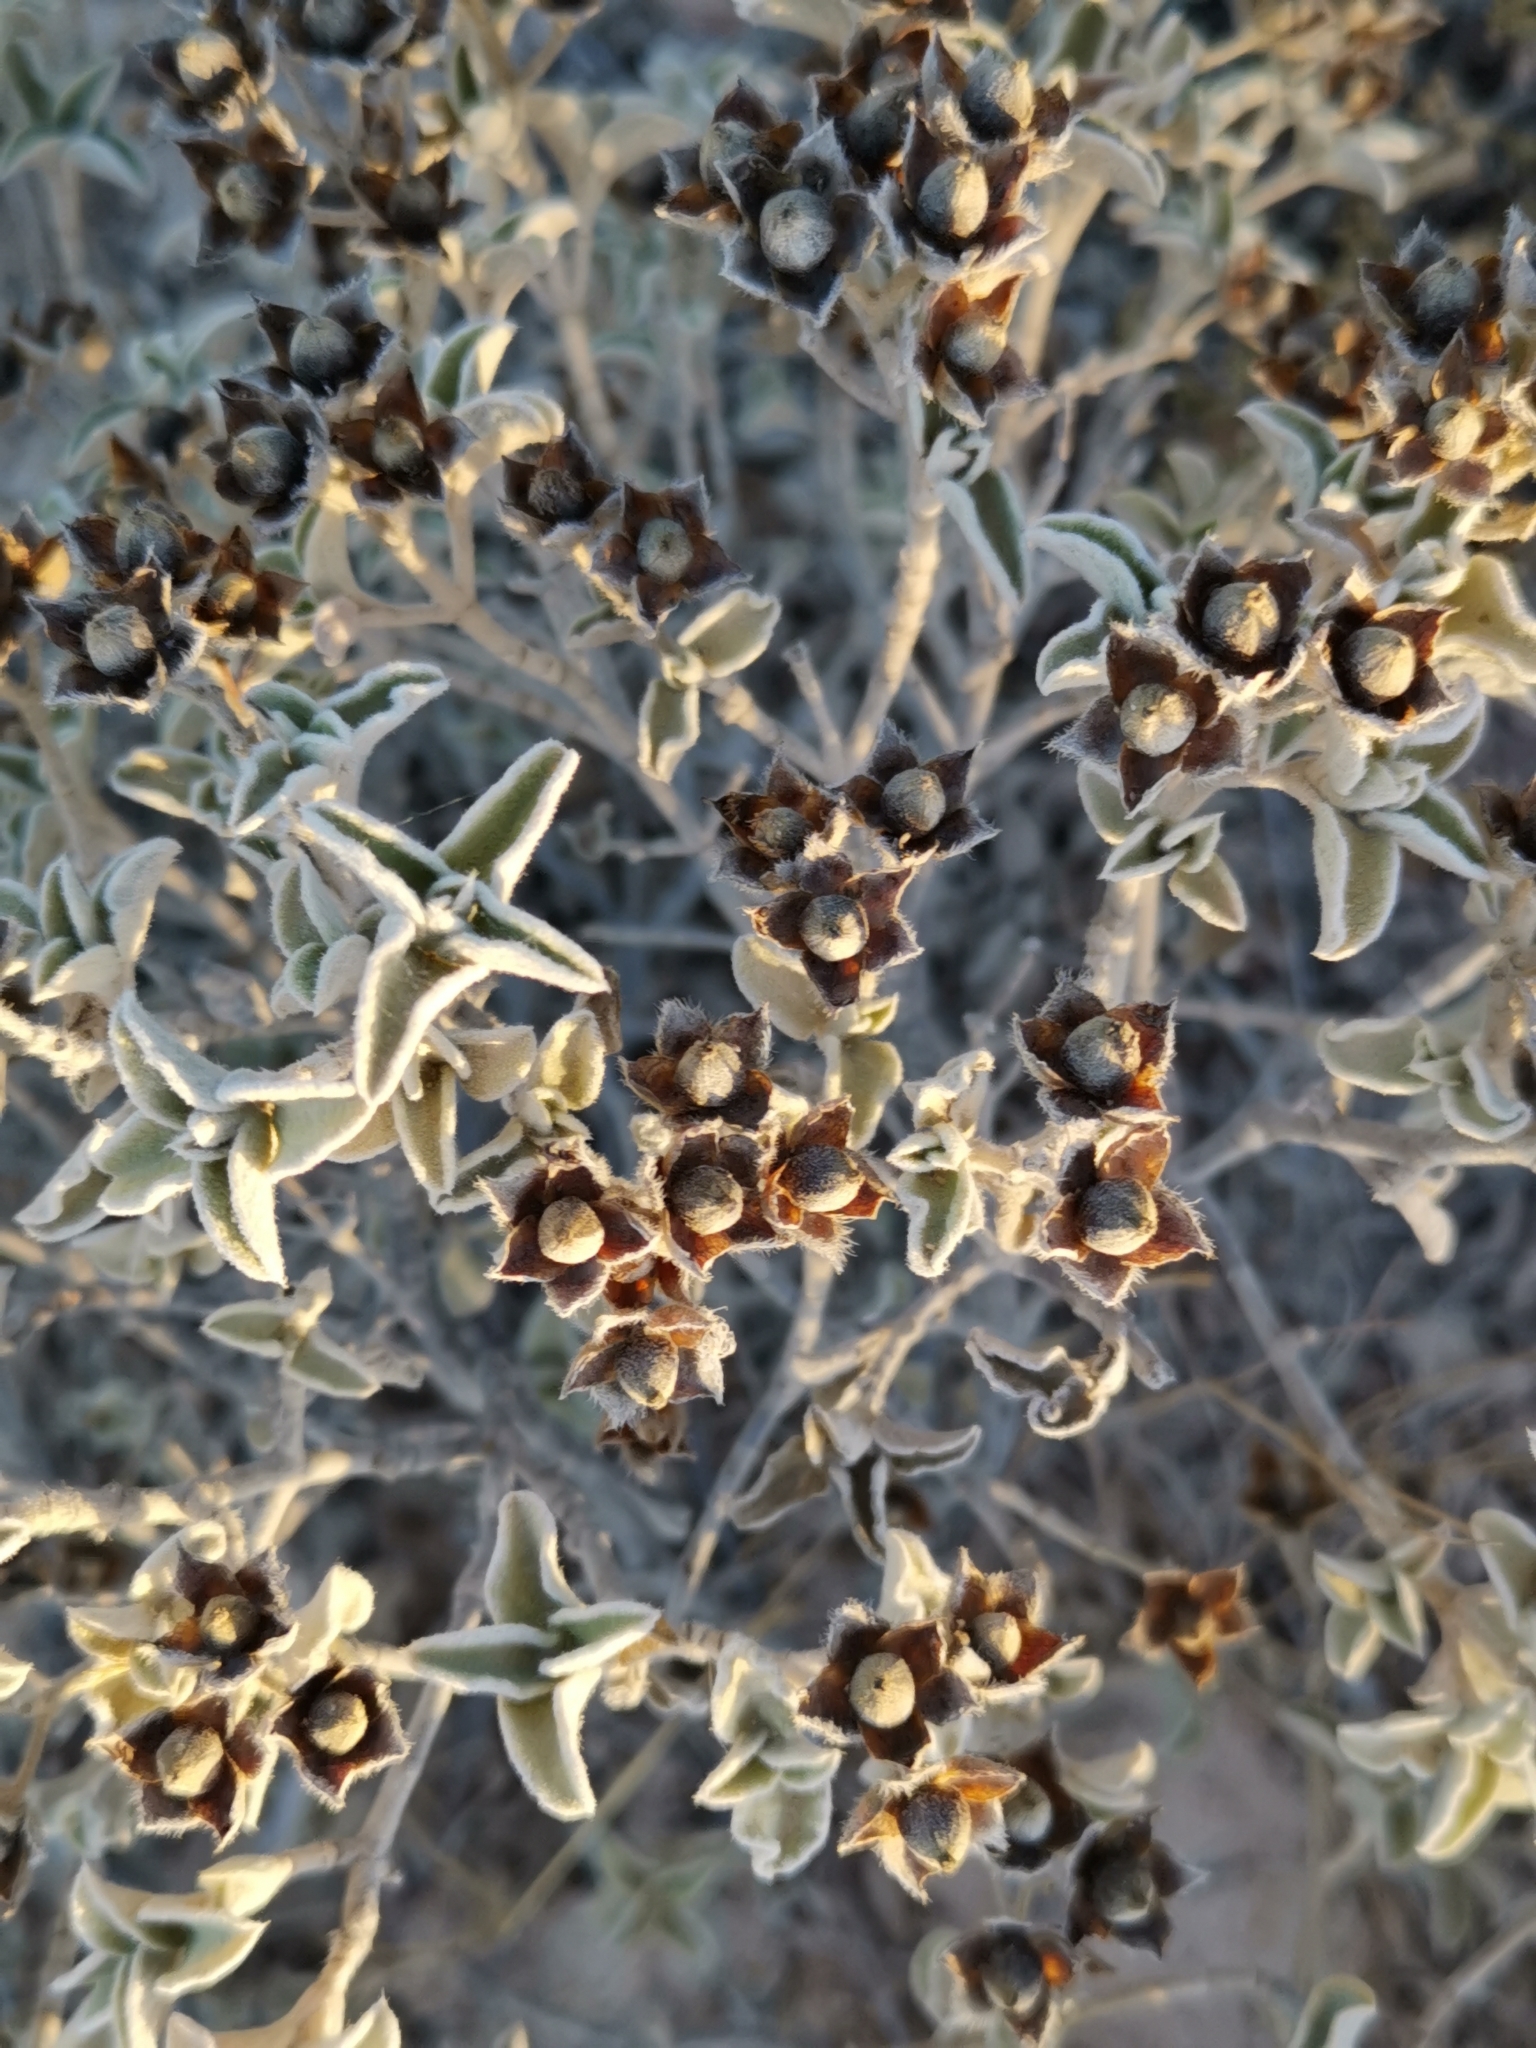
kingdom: Plantae
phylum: Tracheophyta
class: Magnoliopsida
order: Malvales
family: Cistaceae
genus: Cistus
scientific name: Cistus parviflorus
